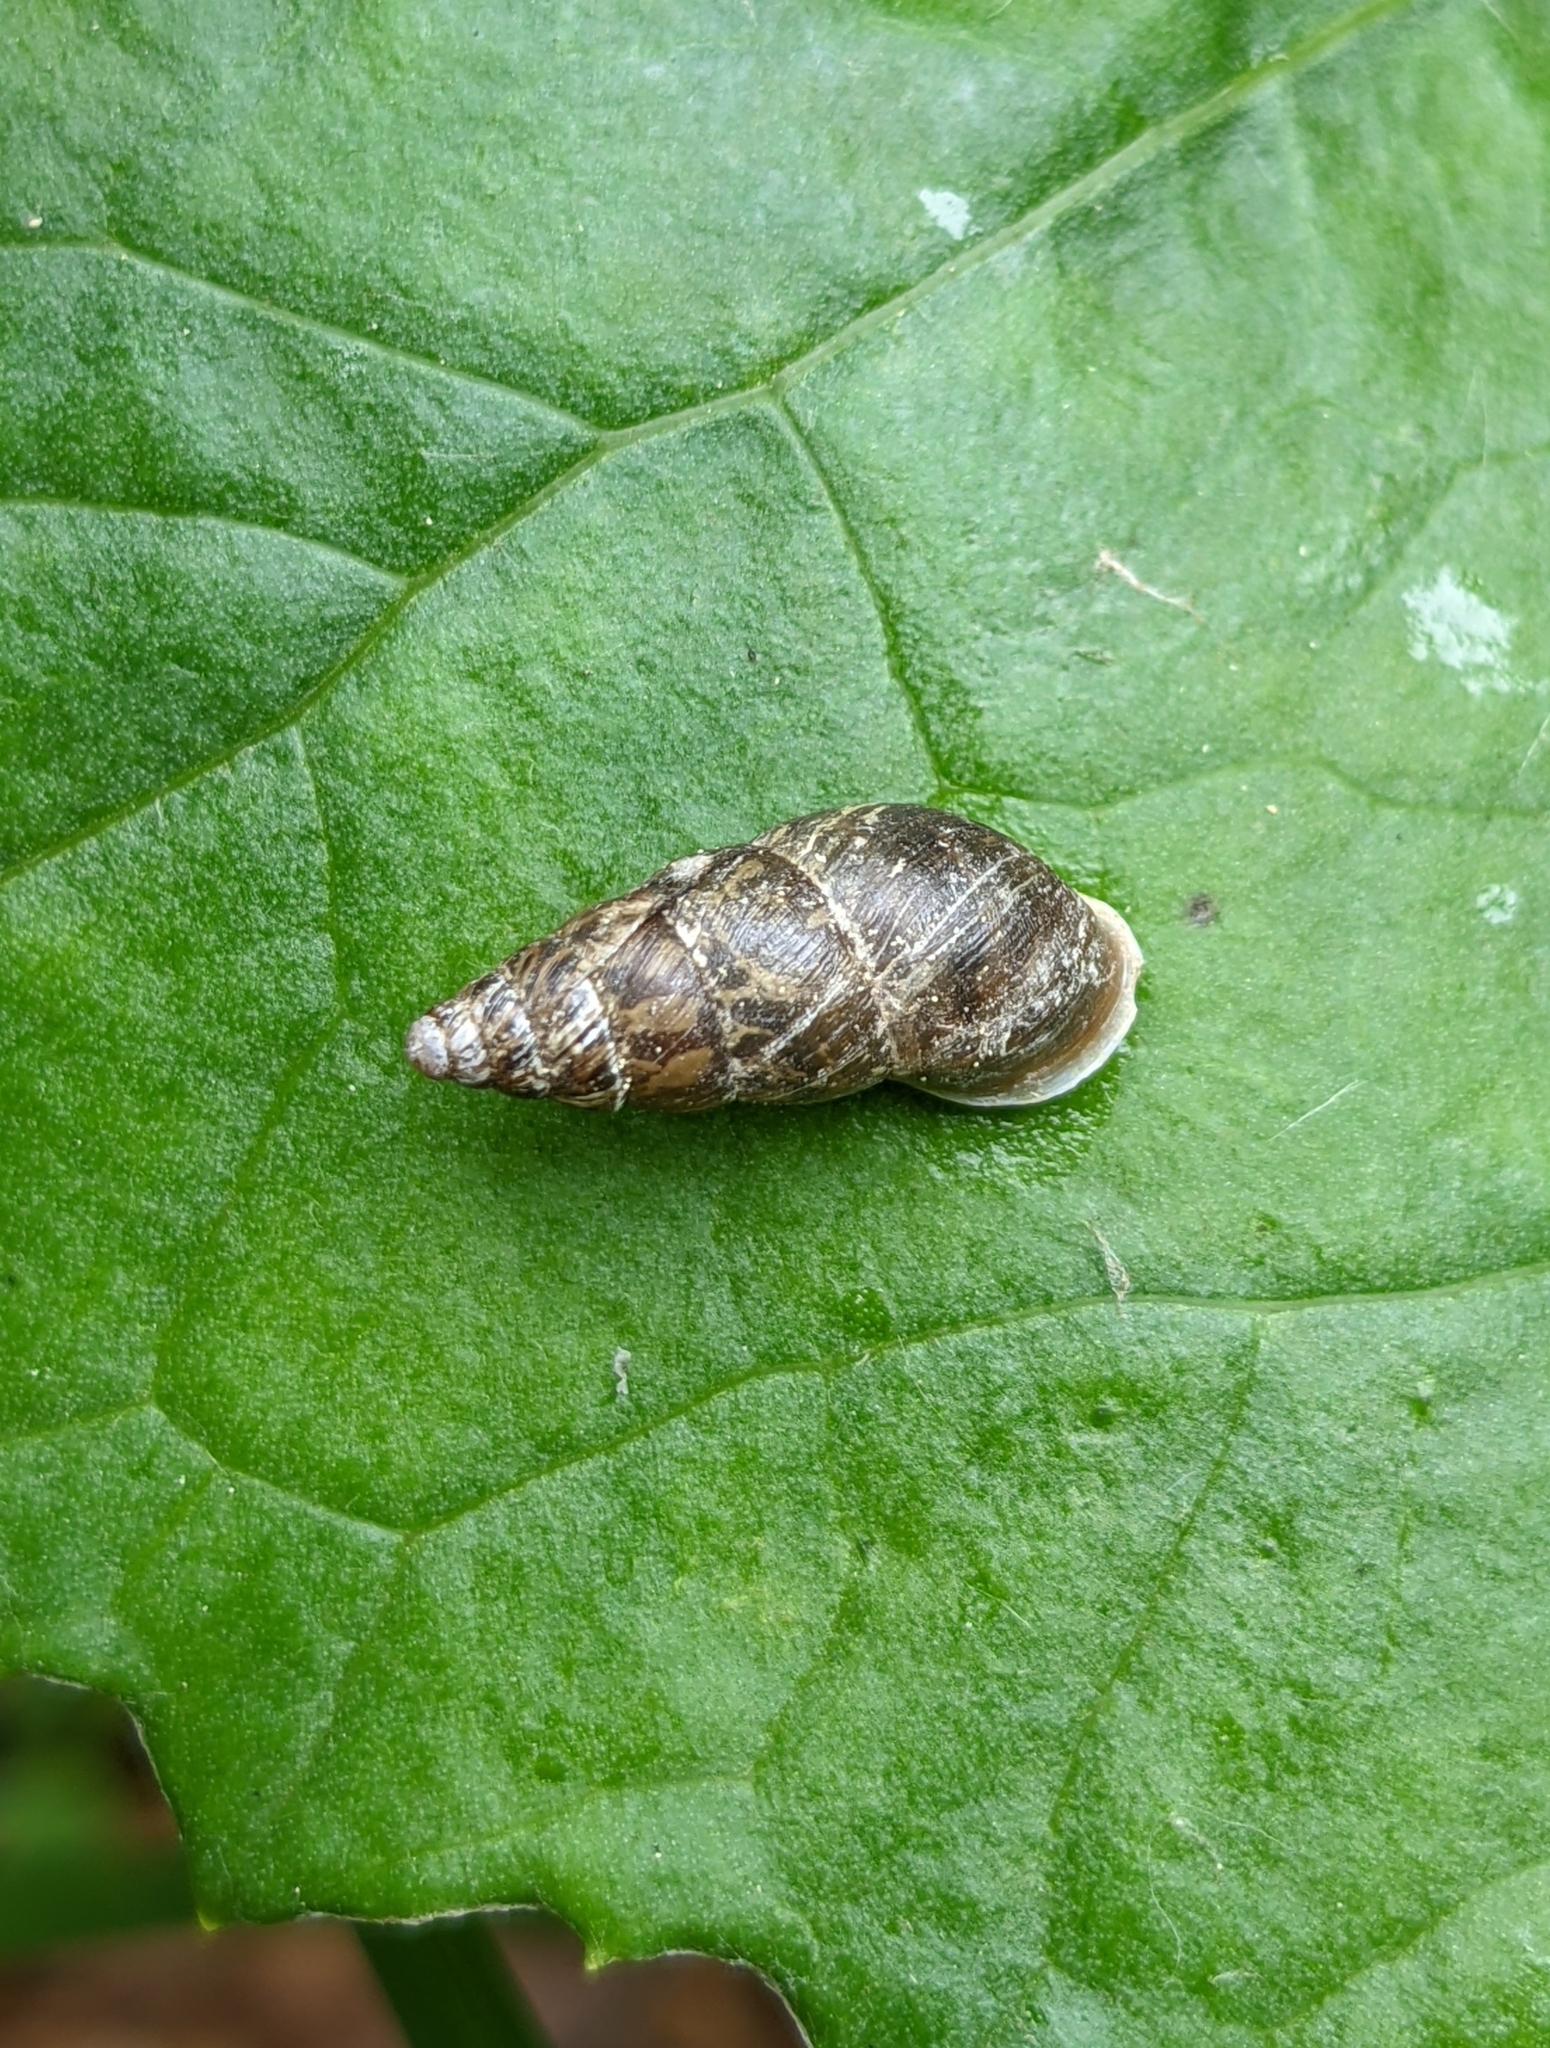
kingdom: Animalia
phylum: Mollusca
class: Gastropoda
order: Stylommatophora
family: Enidae
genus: Ena
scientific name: Ena montana
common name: Mountain bulin
